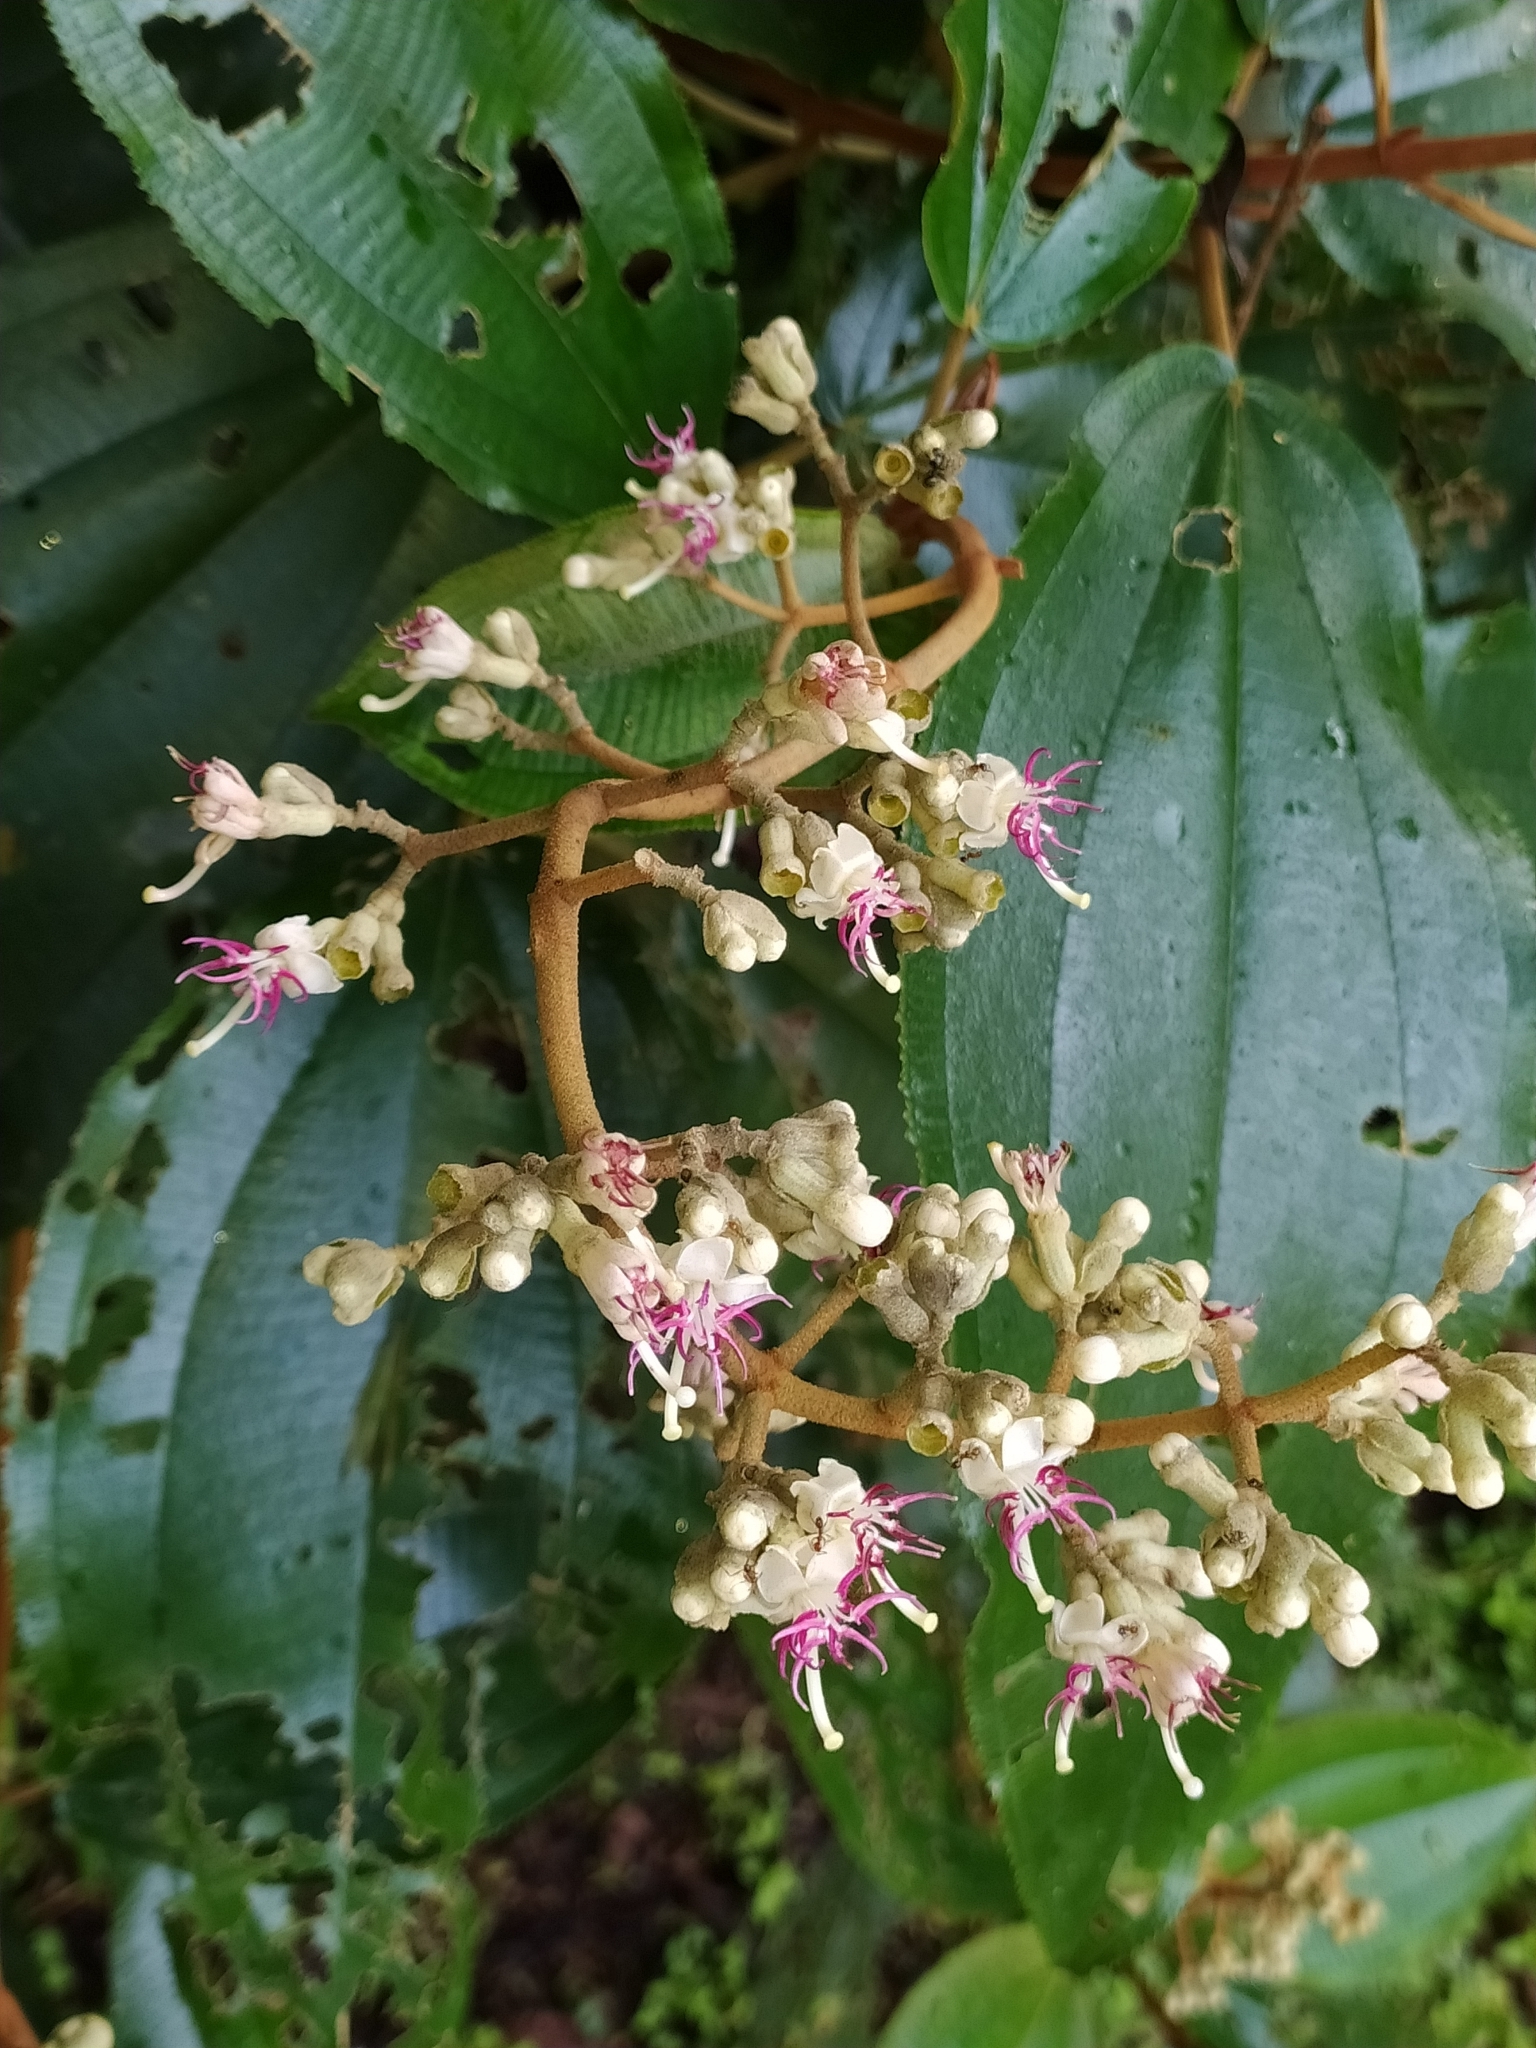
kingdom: Plantae
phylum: Tracheophyta
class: Magnoliopsida
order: Myrtales
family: Melastomataceae
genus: Miconia
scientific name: Miconia serrulata
